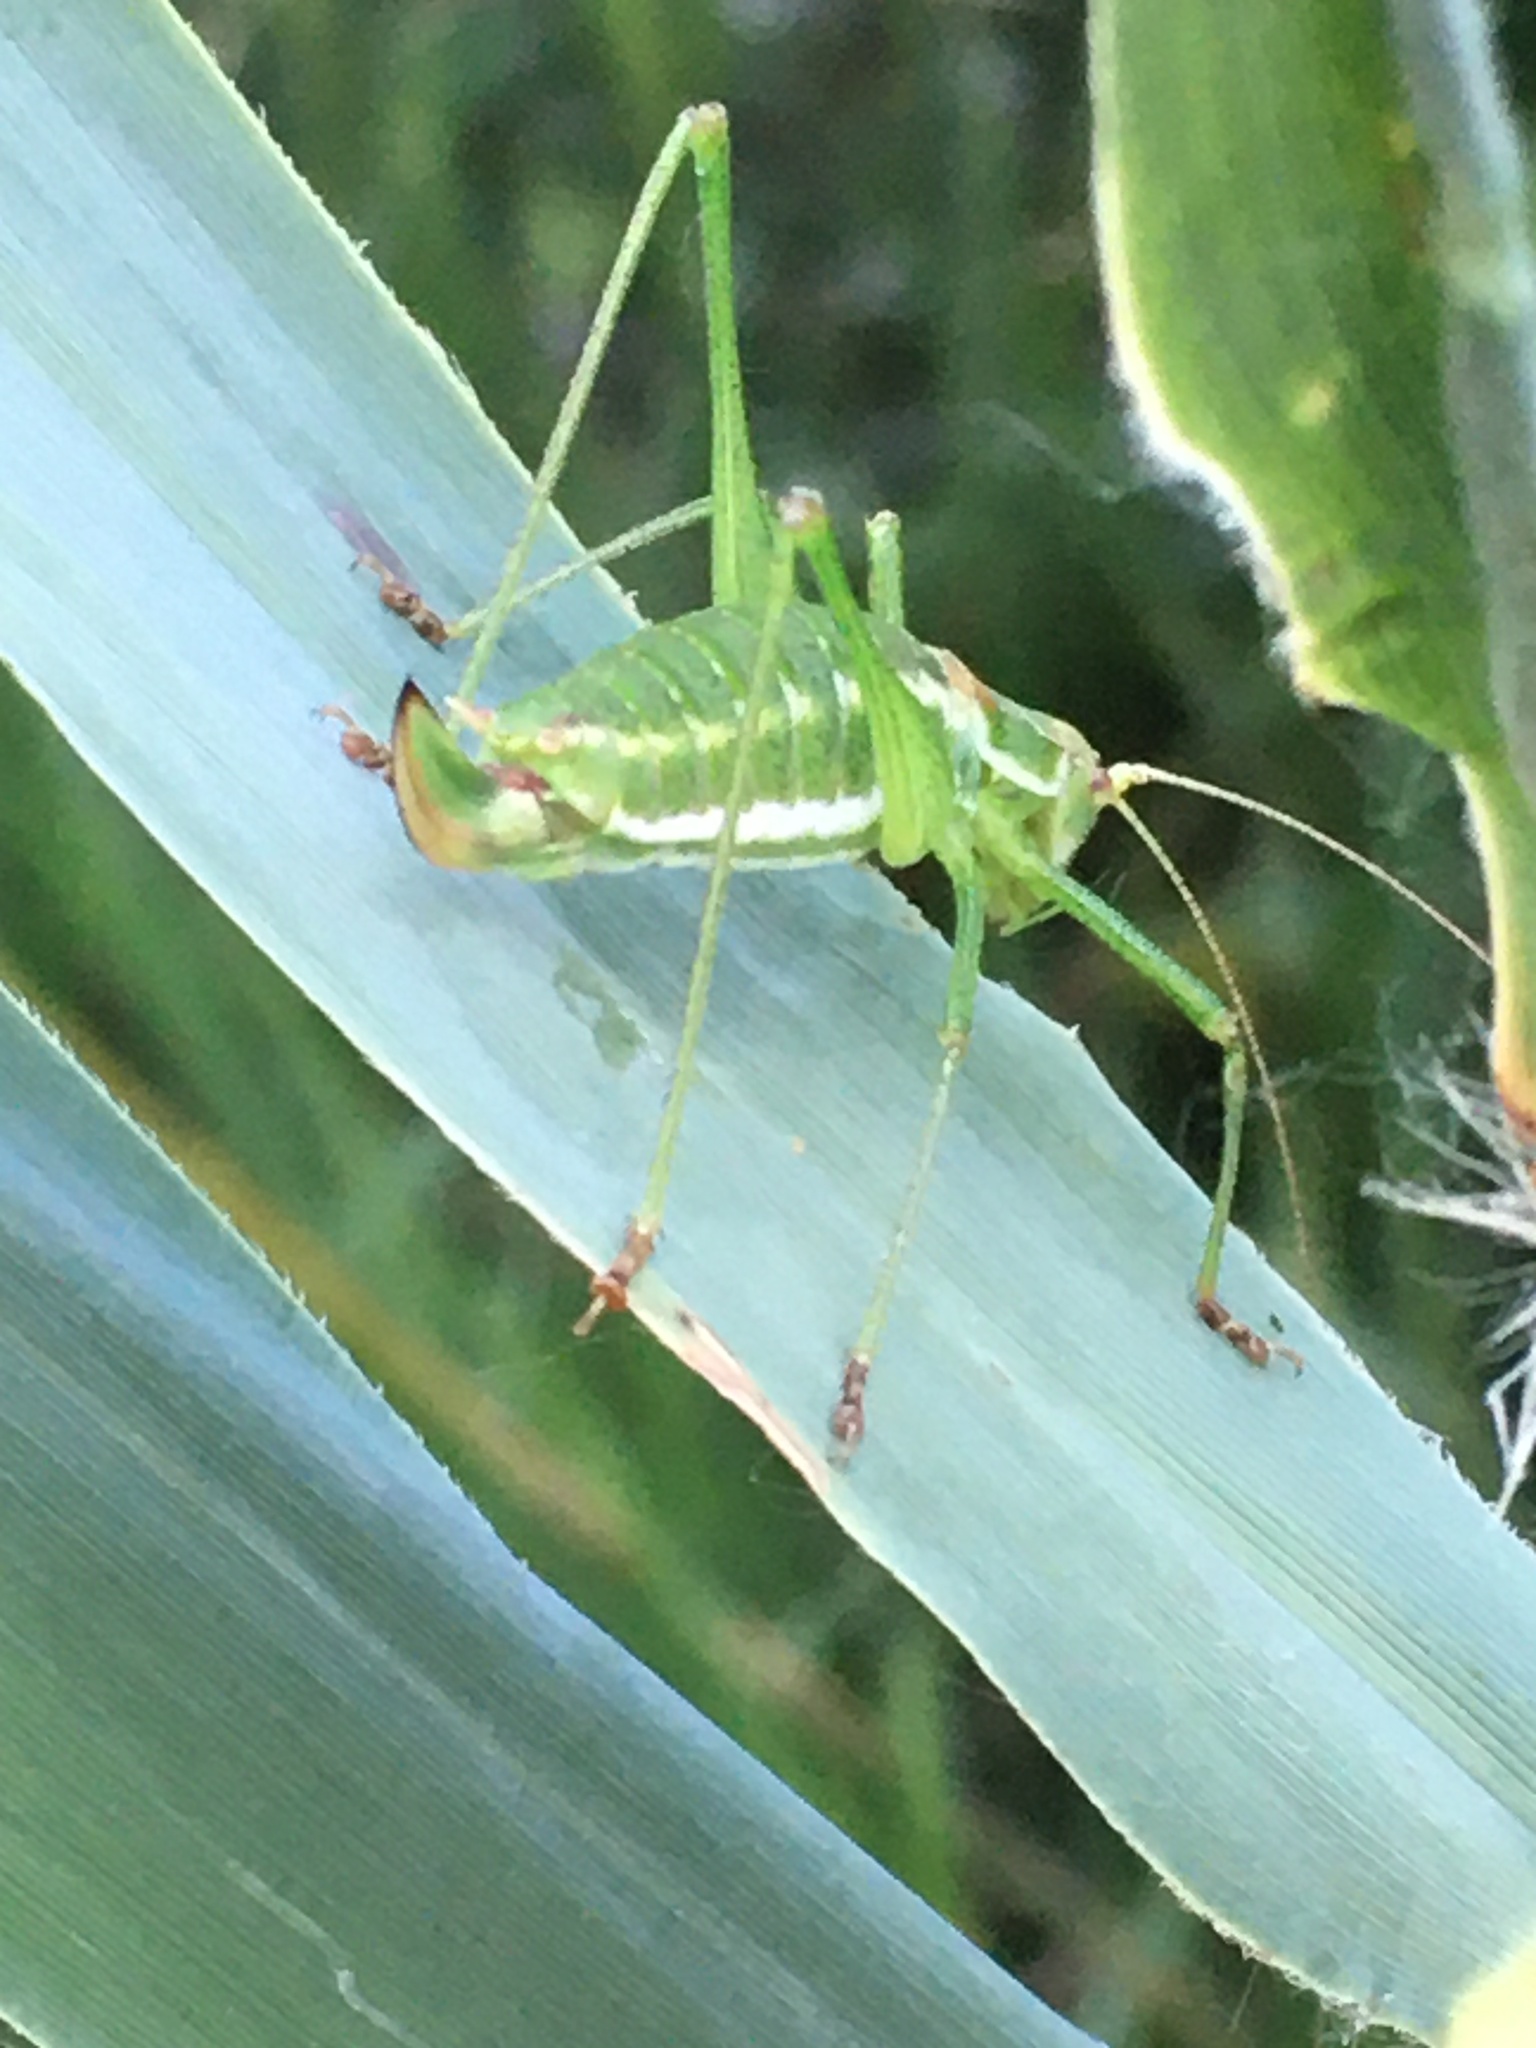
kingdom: Animalia
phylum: Arthropoda
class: Insecta
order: Orthoptera
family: Tettigoniidae
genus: Leptophyes
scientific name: Leptophyes albovittata
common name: Striped bush-cricket
